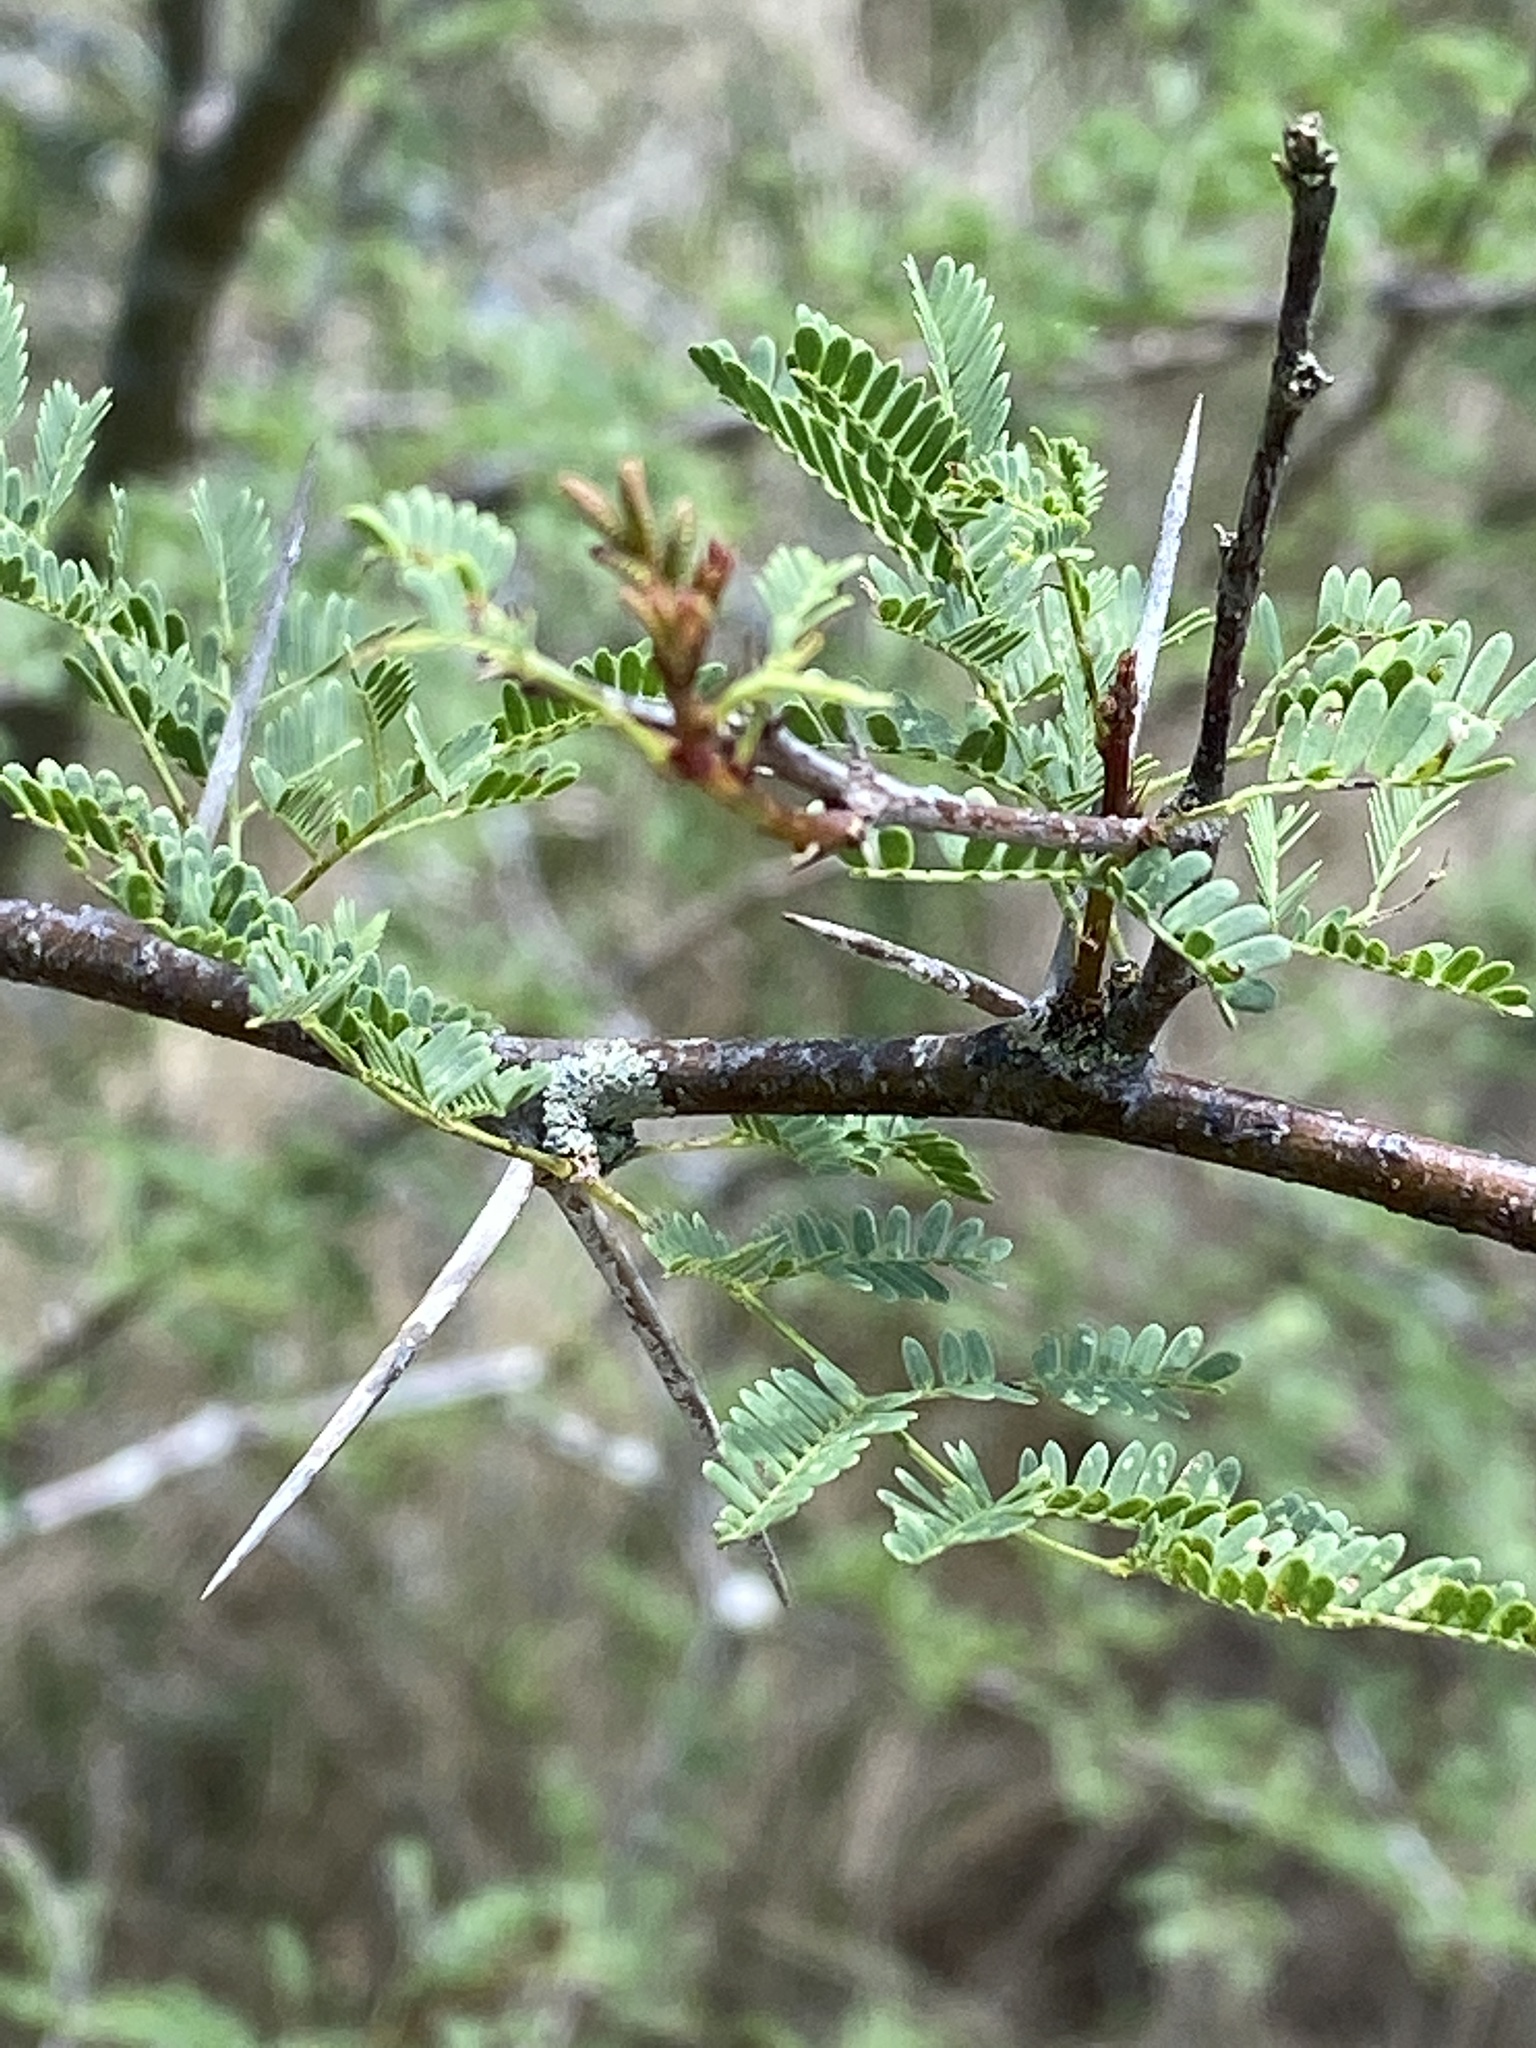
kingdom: Plantae
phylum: Tracheophyta
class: Magnoliopsida
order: Fabales
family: Fabaceae
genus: Vachellia
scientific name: Vachellia farnesiana
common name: Sweet acacia
